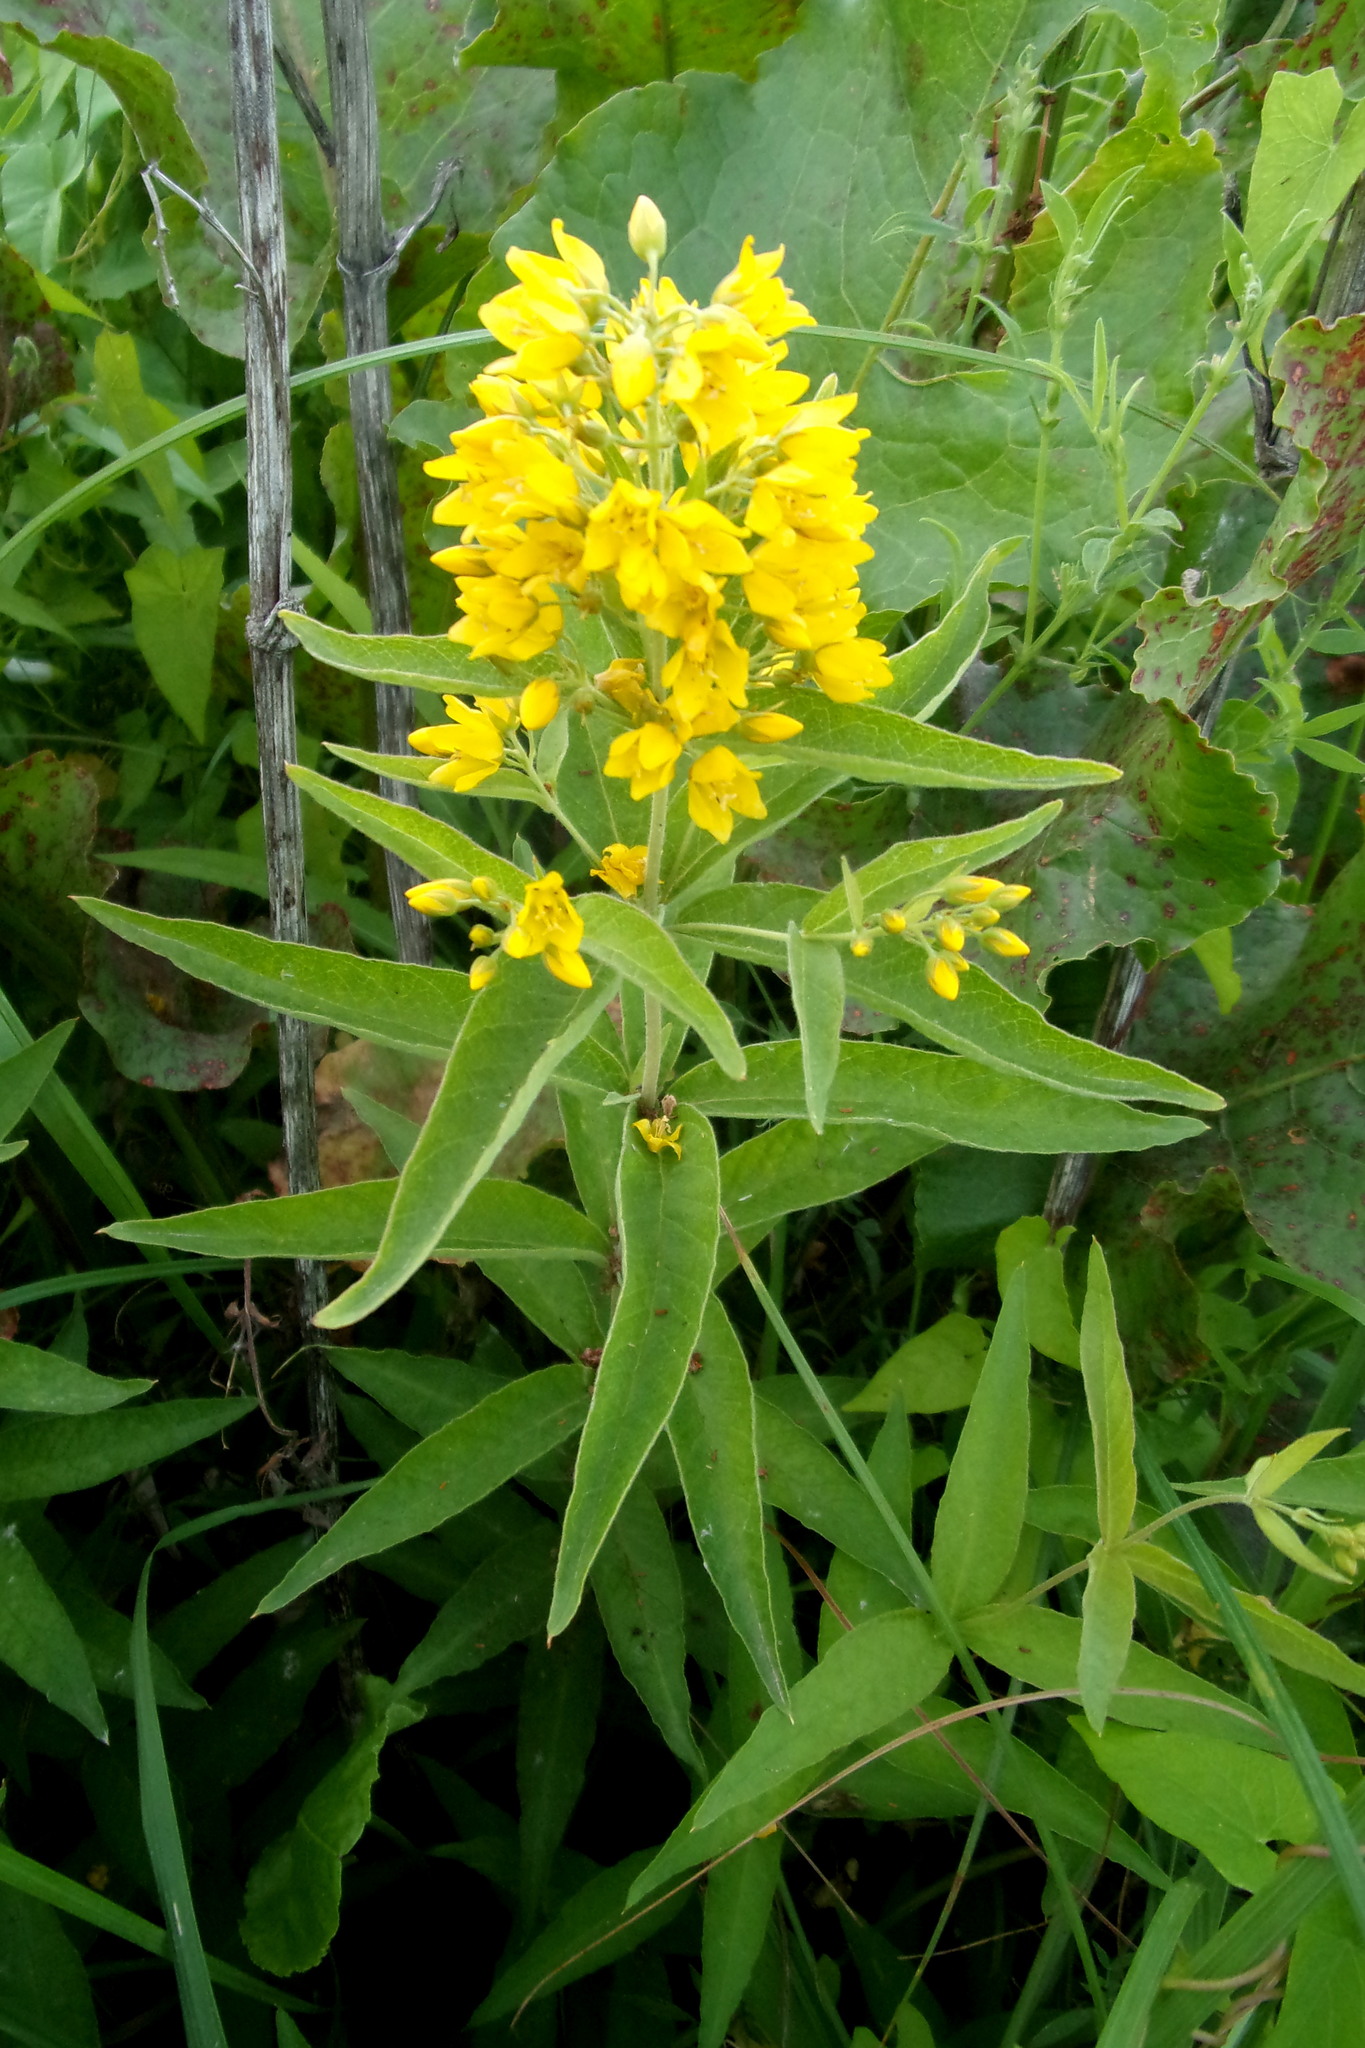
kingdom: Plantae
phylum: Tracheophyta
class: Magnoliopsida
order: Ericales
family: Primulaceae
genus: Lysimachia
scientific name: Lysimachia vulgaris
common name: Yellow loosestrife
